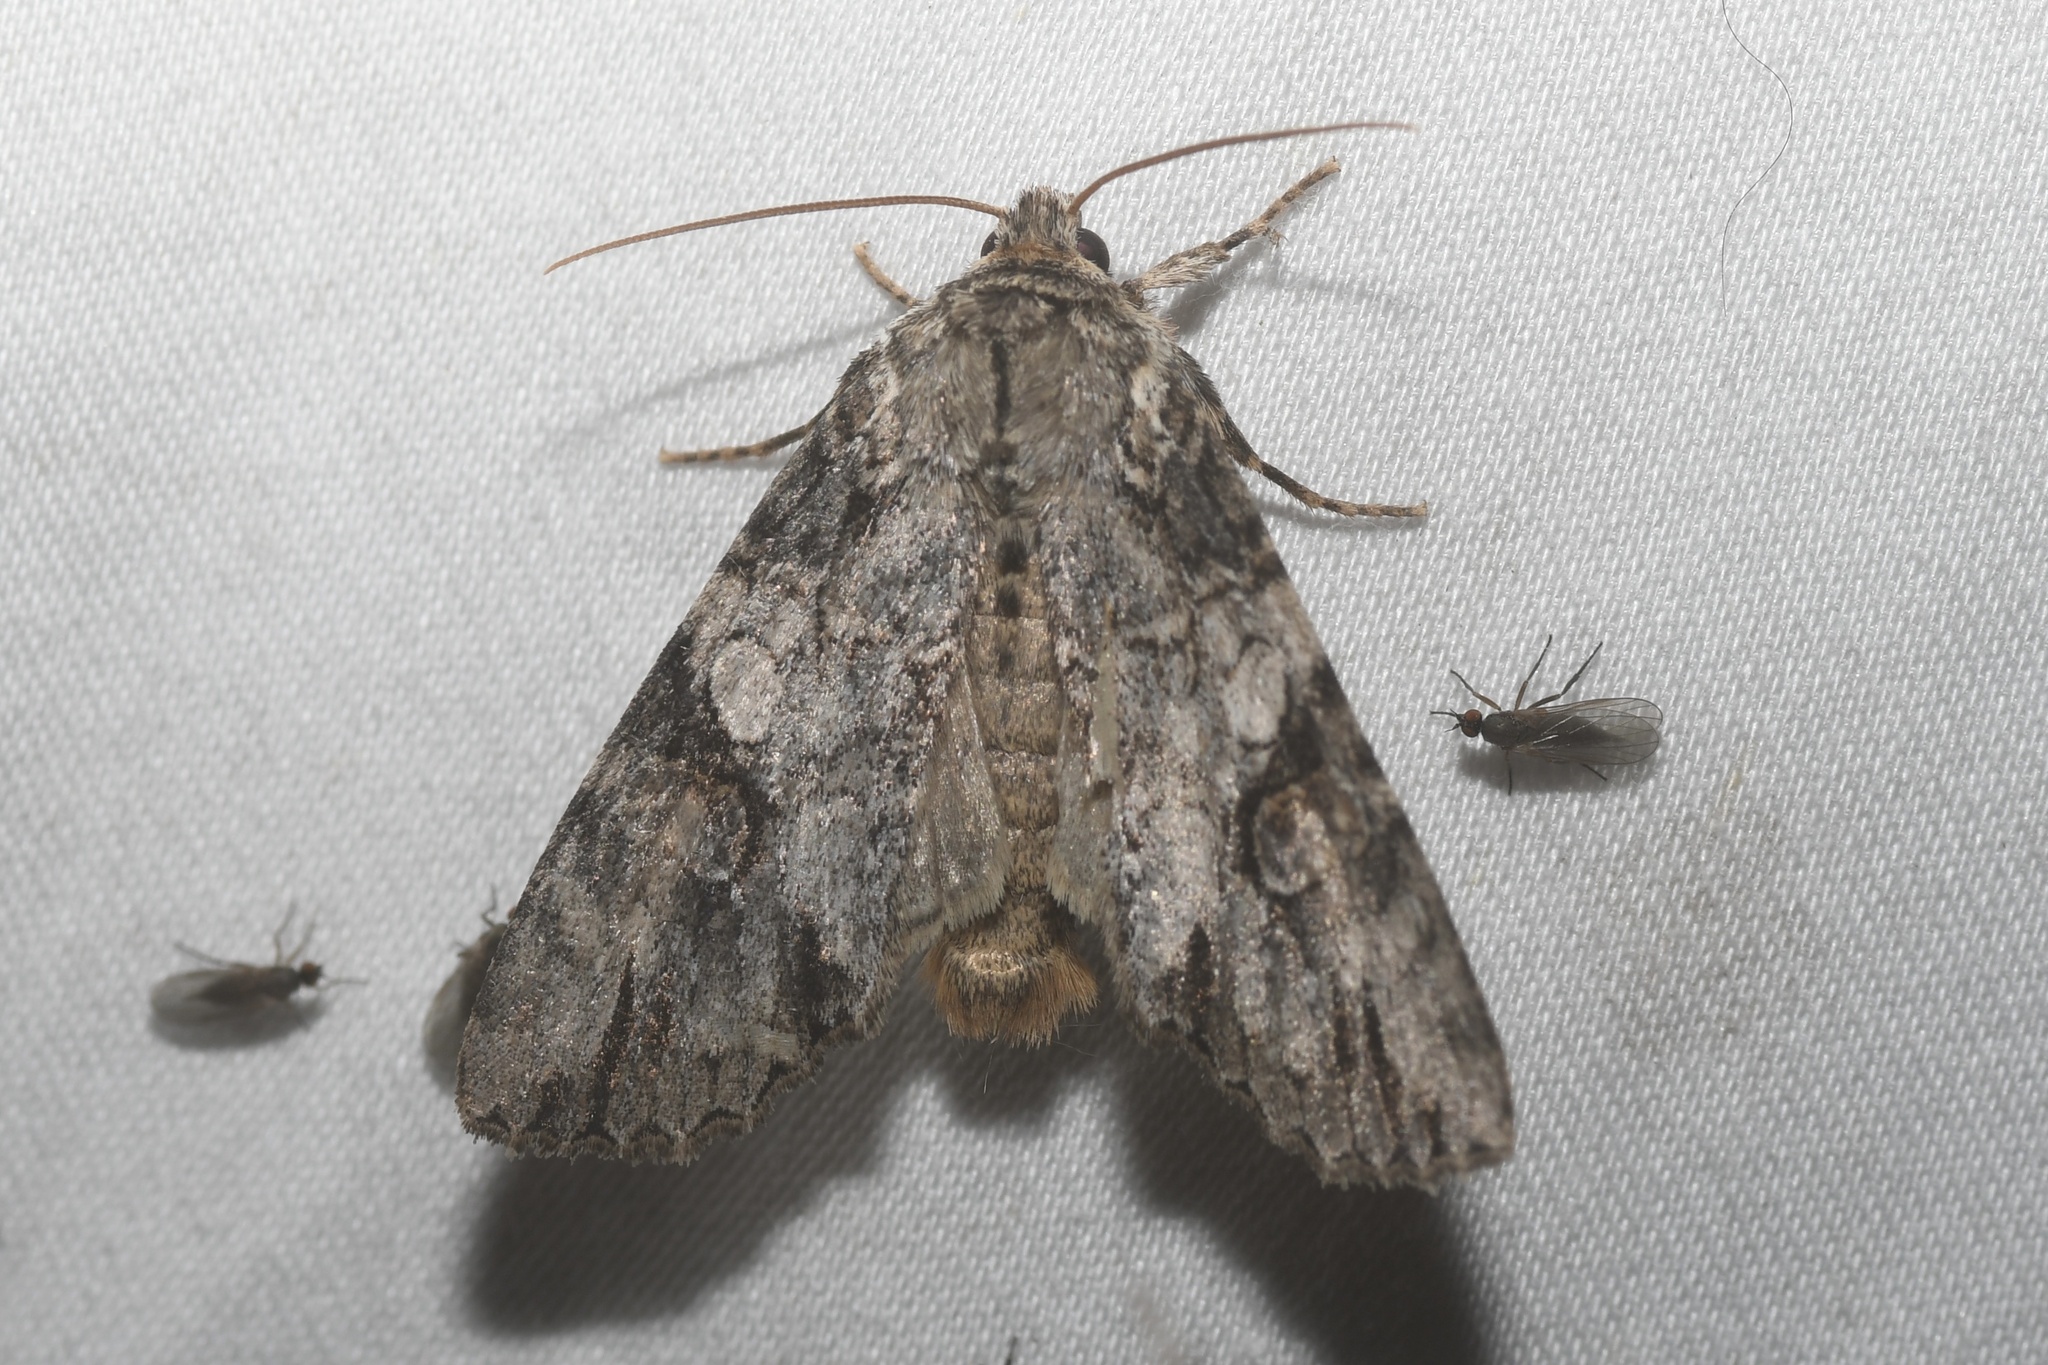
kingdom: Animalia
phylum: Arthropoda
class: Insecta
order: Lepidoptera
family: Noctuidae
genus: Achatia
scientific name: Achatia latex
